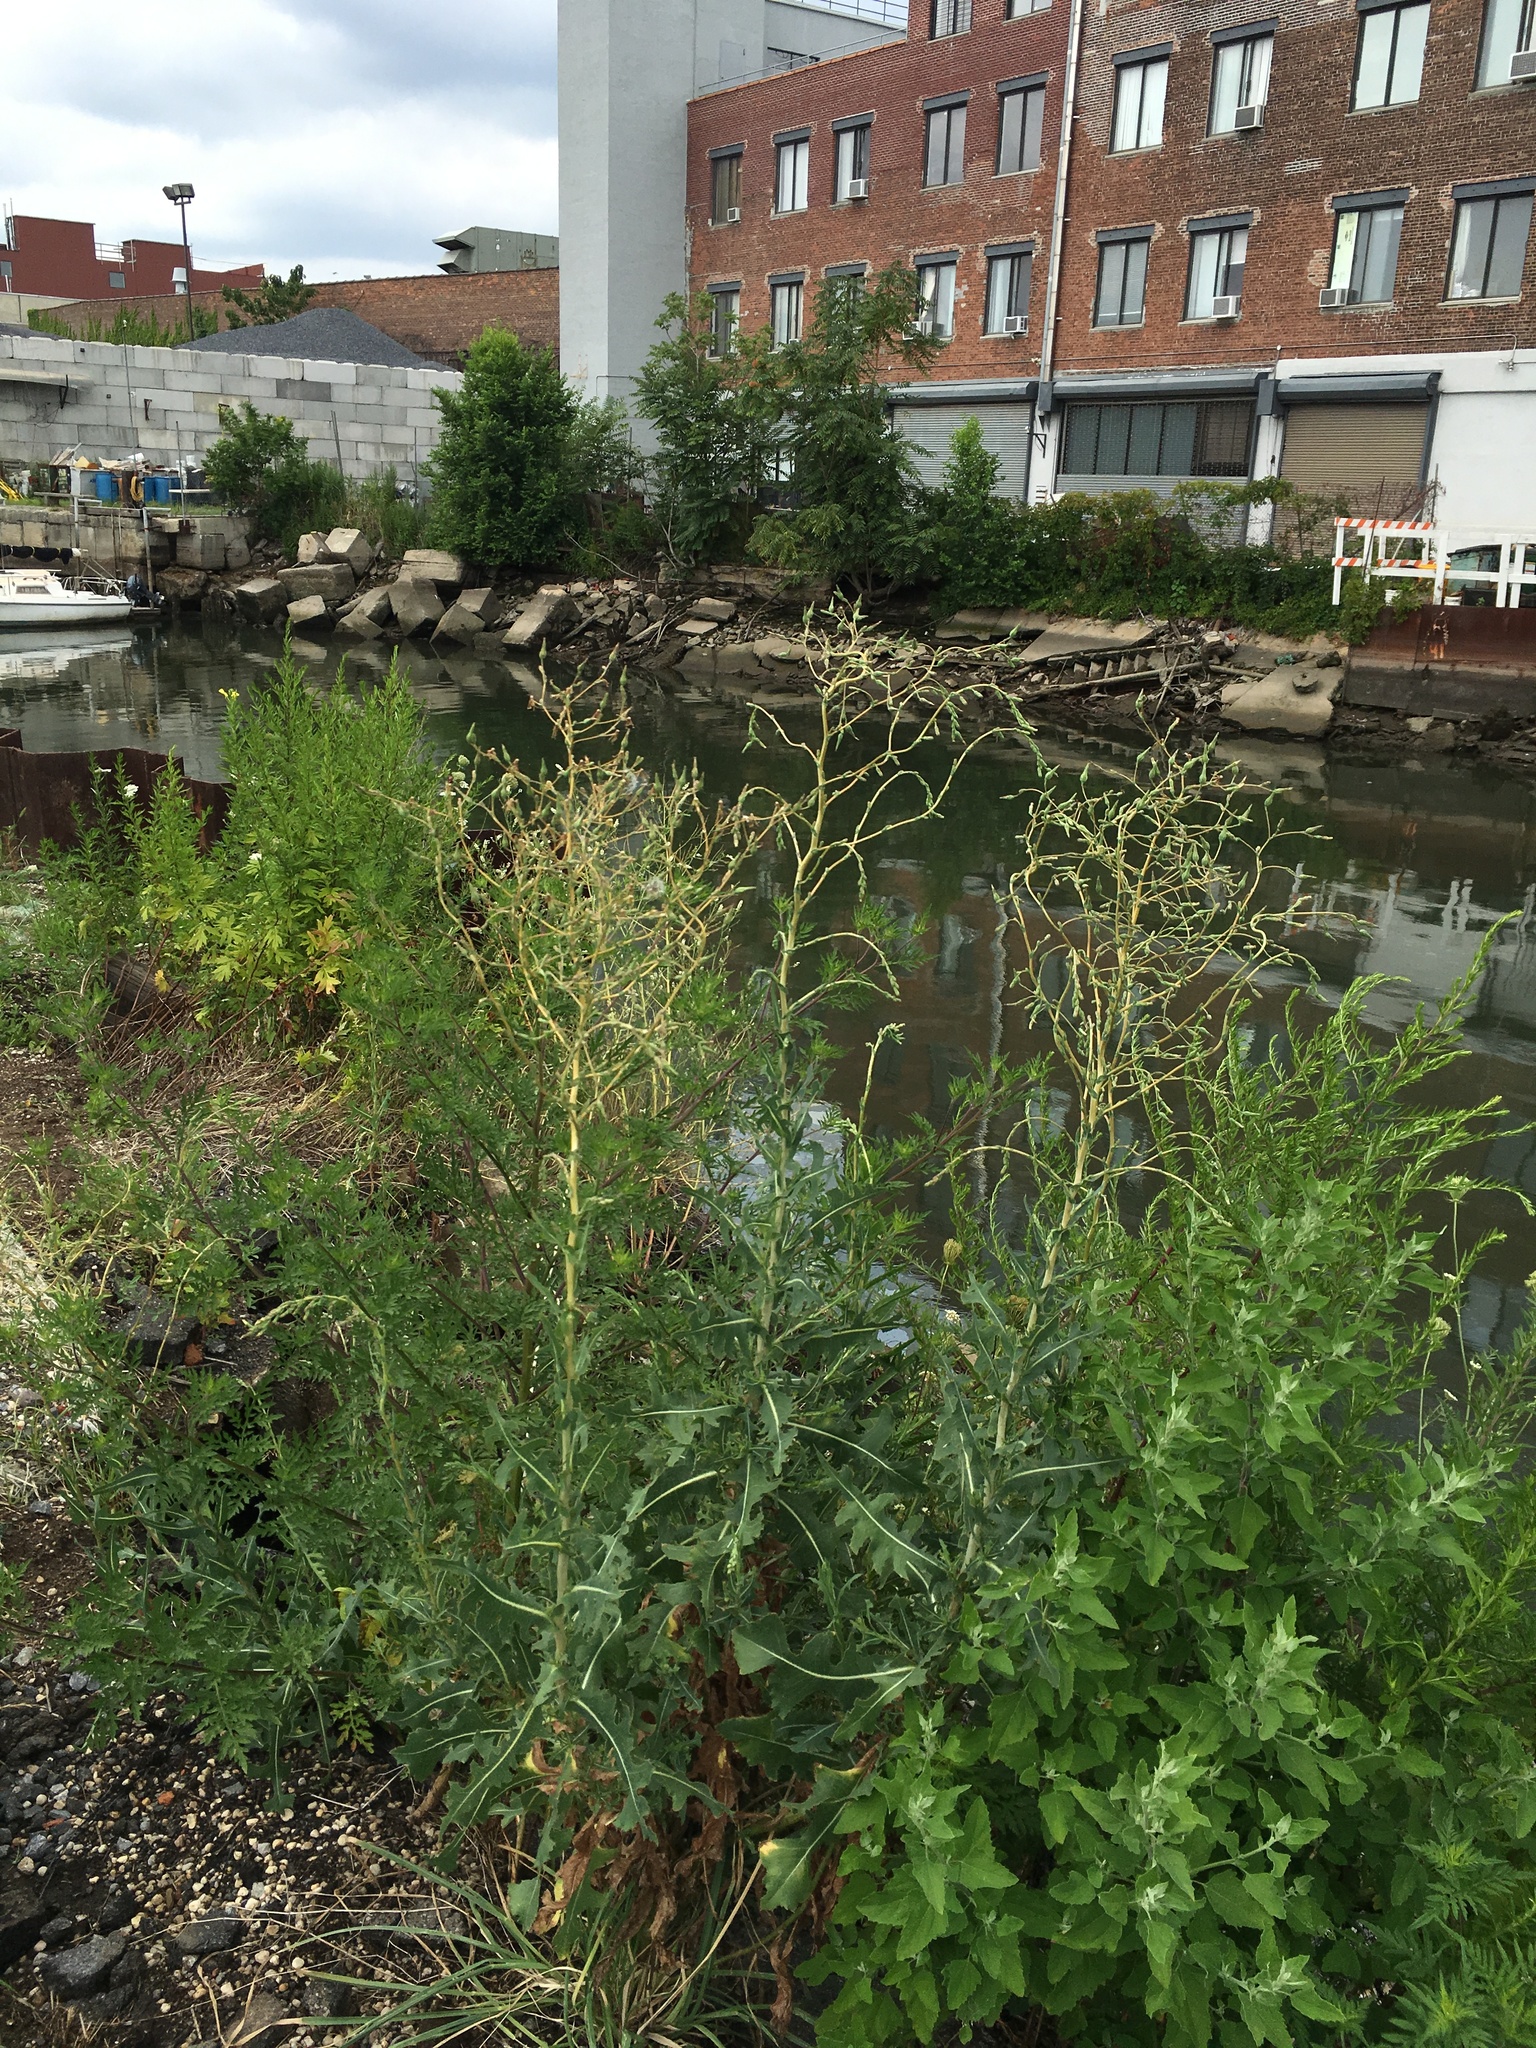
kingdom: Plantae
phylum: Tracheophyta
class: Magnoliopsida
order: Asterales
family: Asteraceae
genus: Lactuca
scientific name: Lactuca serriola
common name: Prickly lettuce
